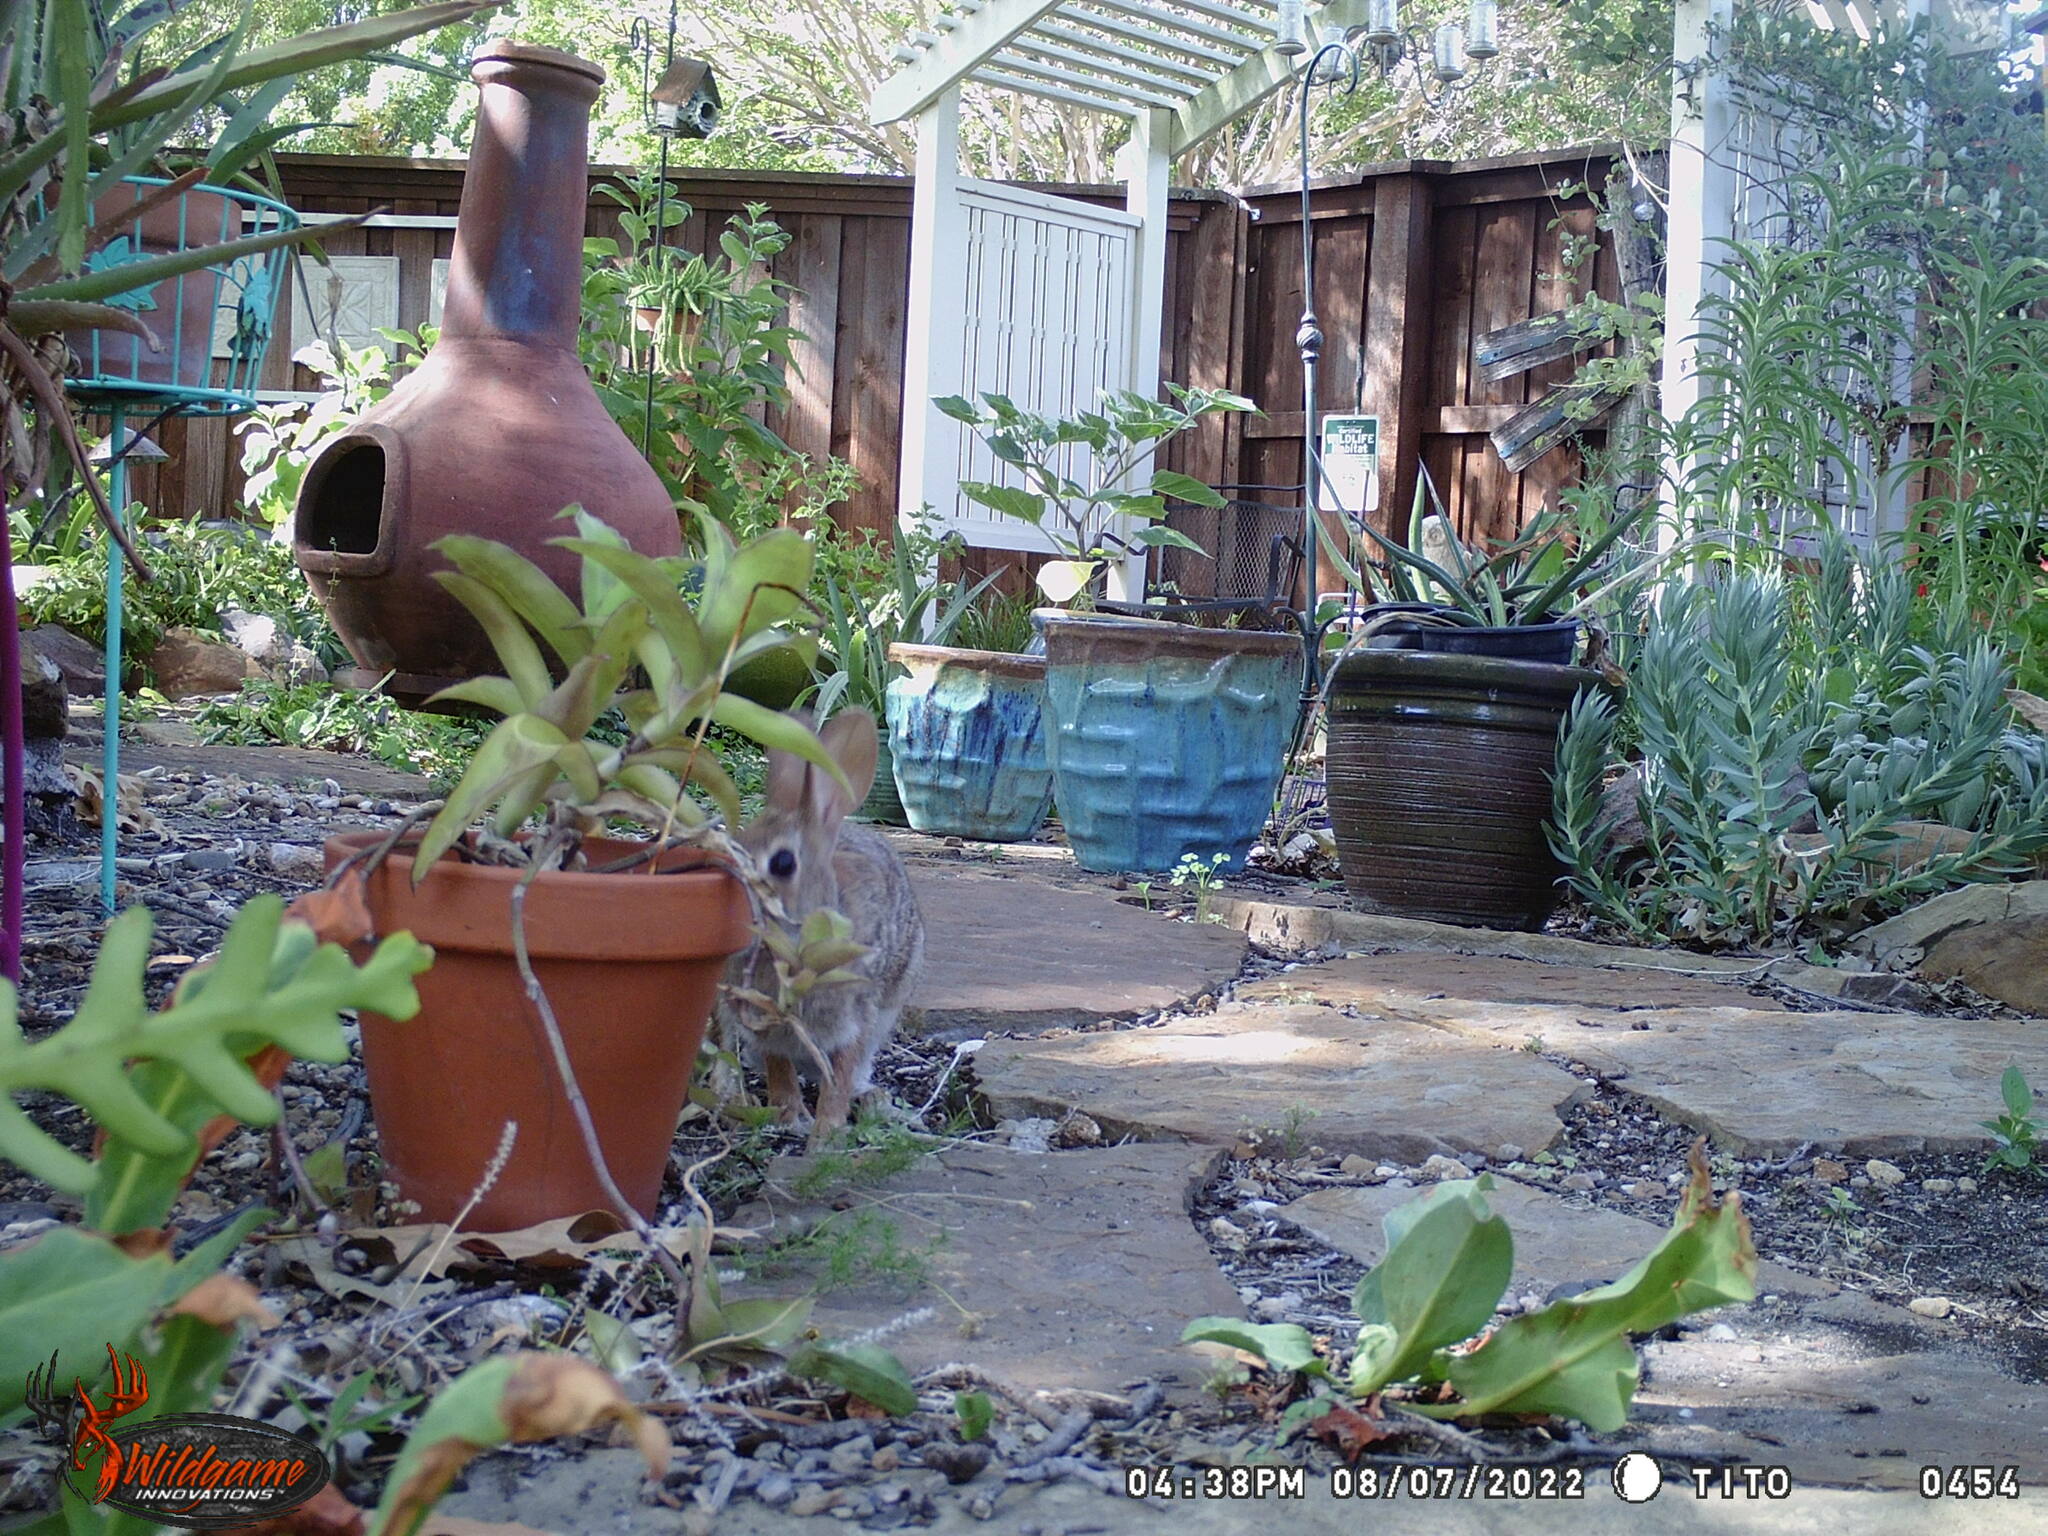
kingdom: Animalia
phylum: Chordata
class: Mammalia
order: Lagomorpha
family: Leporidae
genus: Sylvilagus
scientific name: Sylvilagus floridanus
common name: Eastern cottontail
